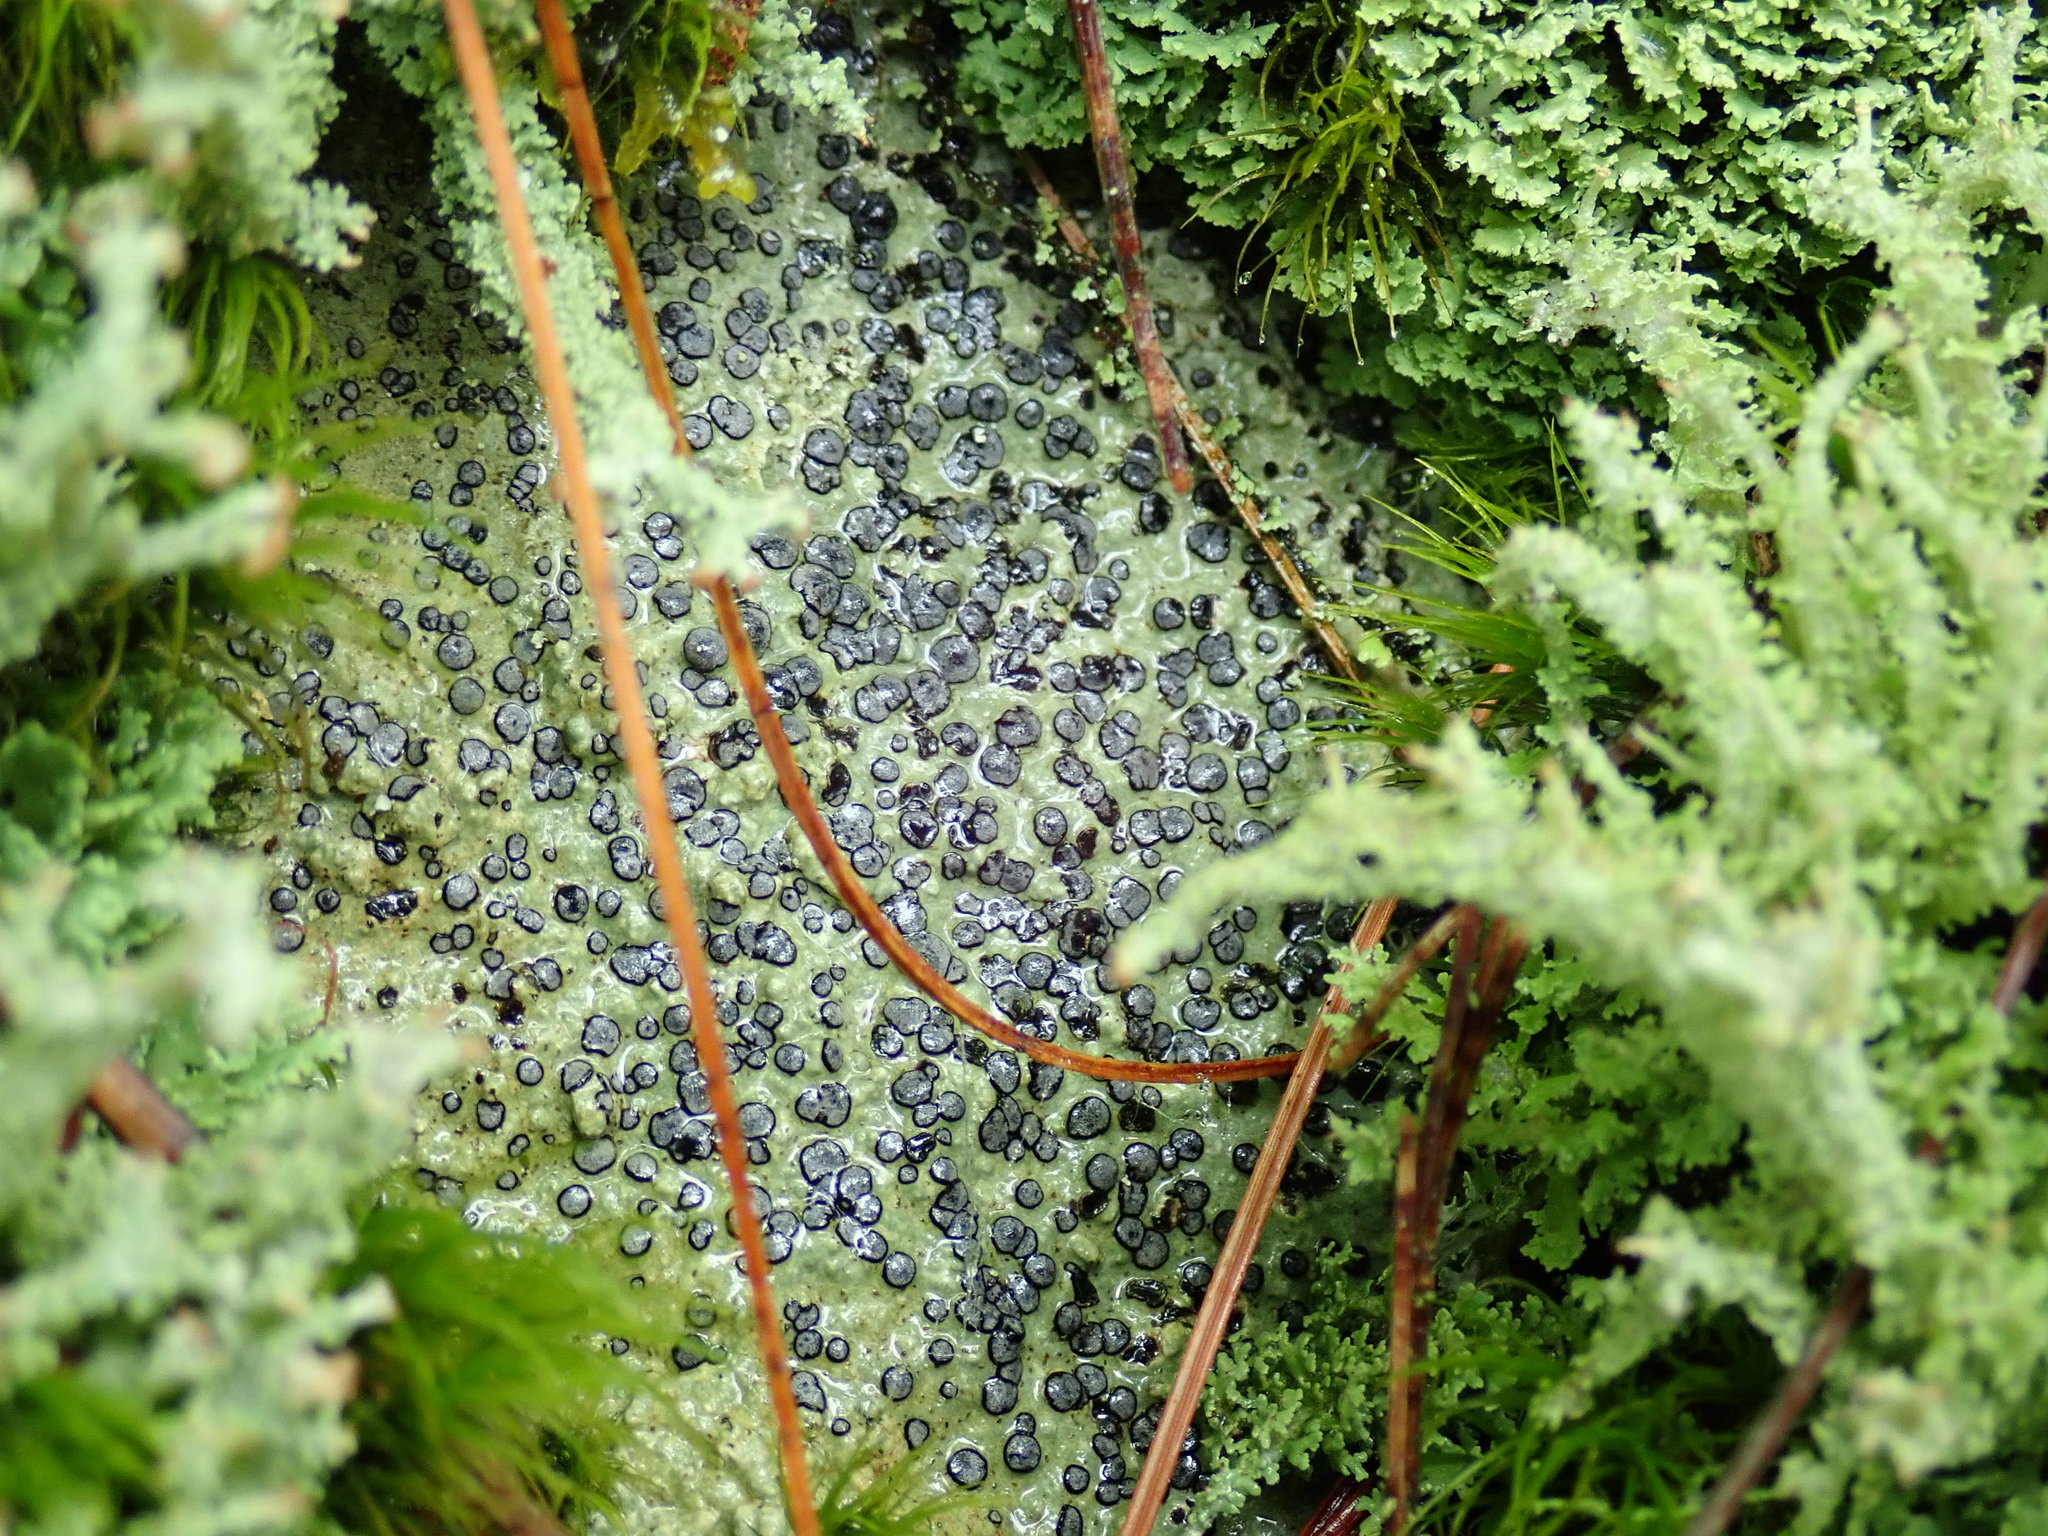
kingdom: Fungi
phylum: Ascomycota
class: Lecanoromycetes
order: Lecideales
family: Lecideaceae
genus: Porpidia
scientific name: Porpidia albocaerulescens
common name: Smokey-eyed boulder lichen
